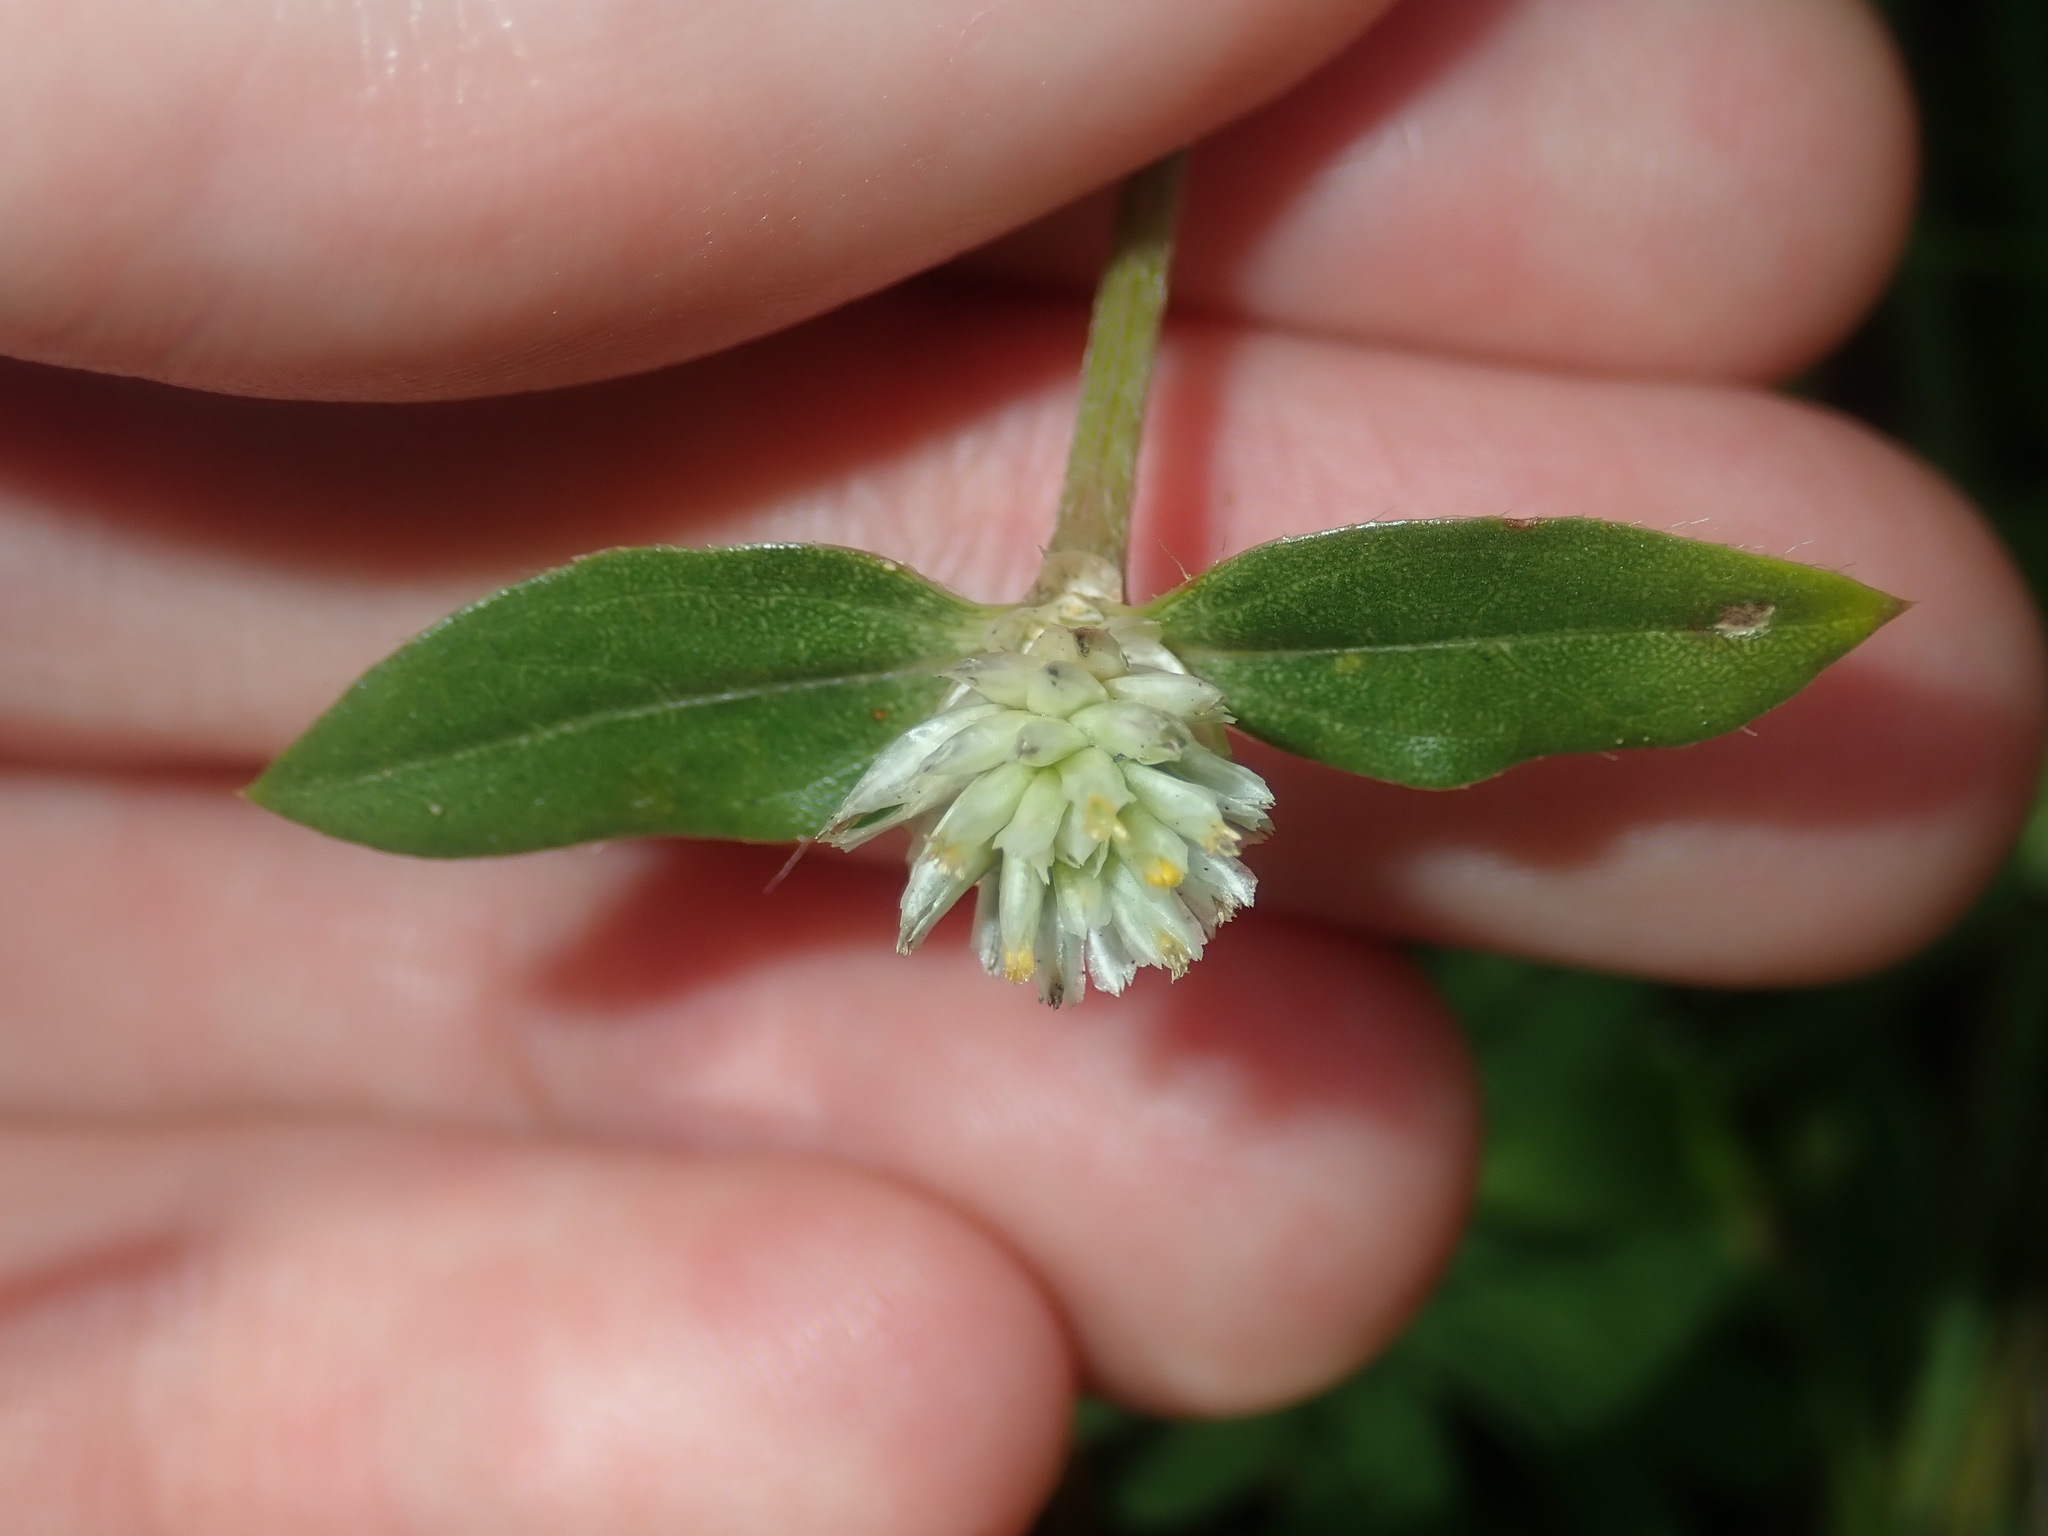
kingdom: Plantae
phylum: Tracheophyta
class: Magnoliopsida
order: Caryophyllales
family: Amaranthaceae
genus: Gomphrena
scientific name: Gomphrena celosioides
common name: Gomphrena-weed
